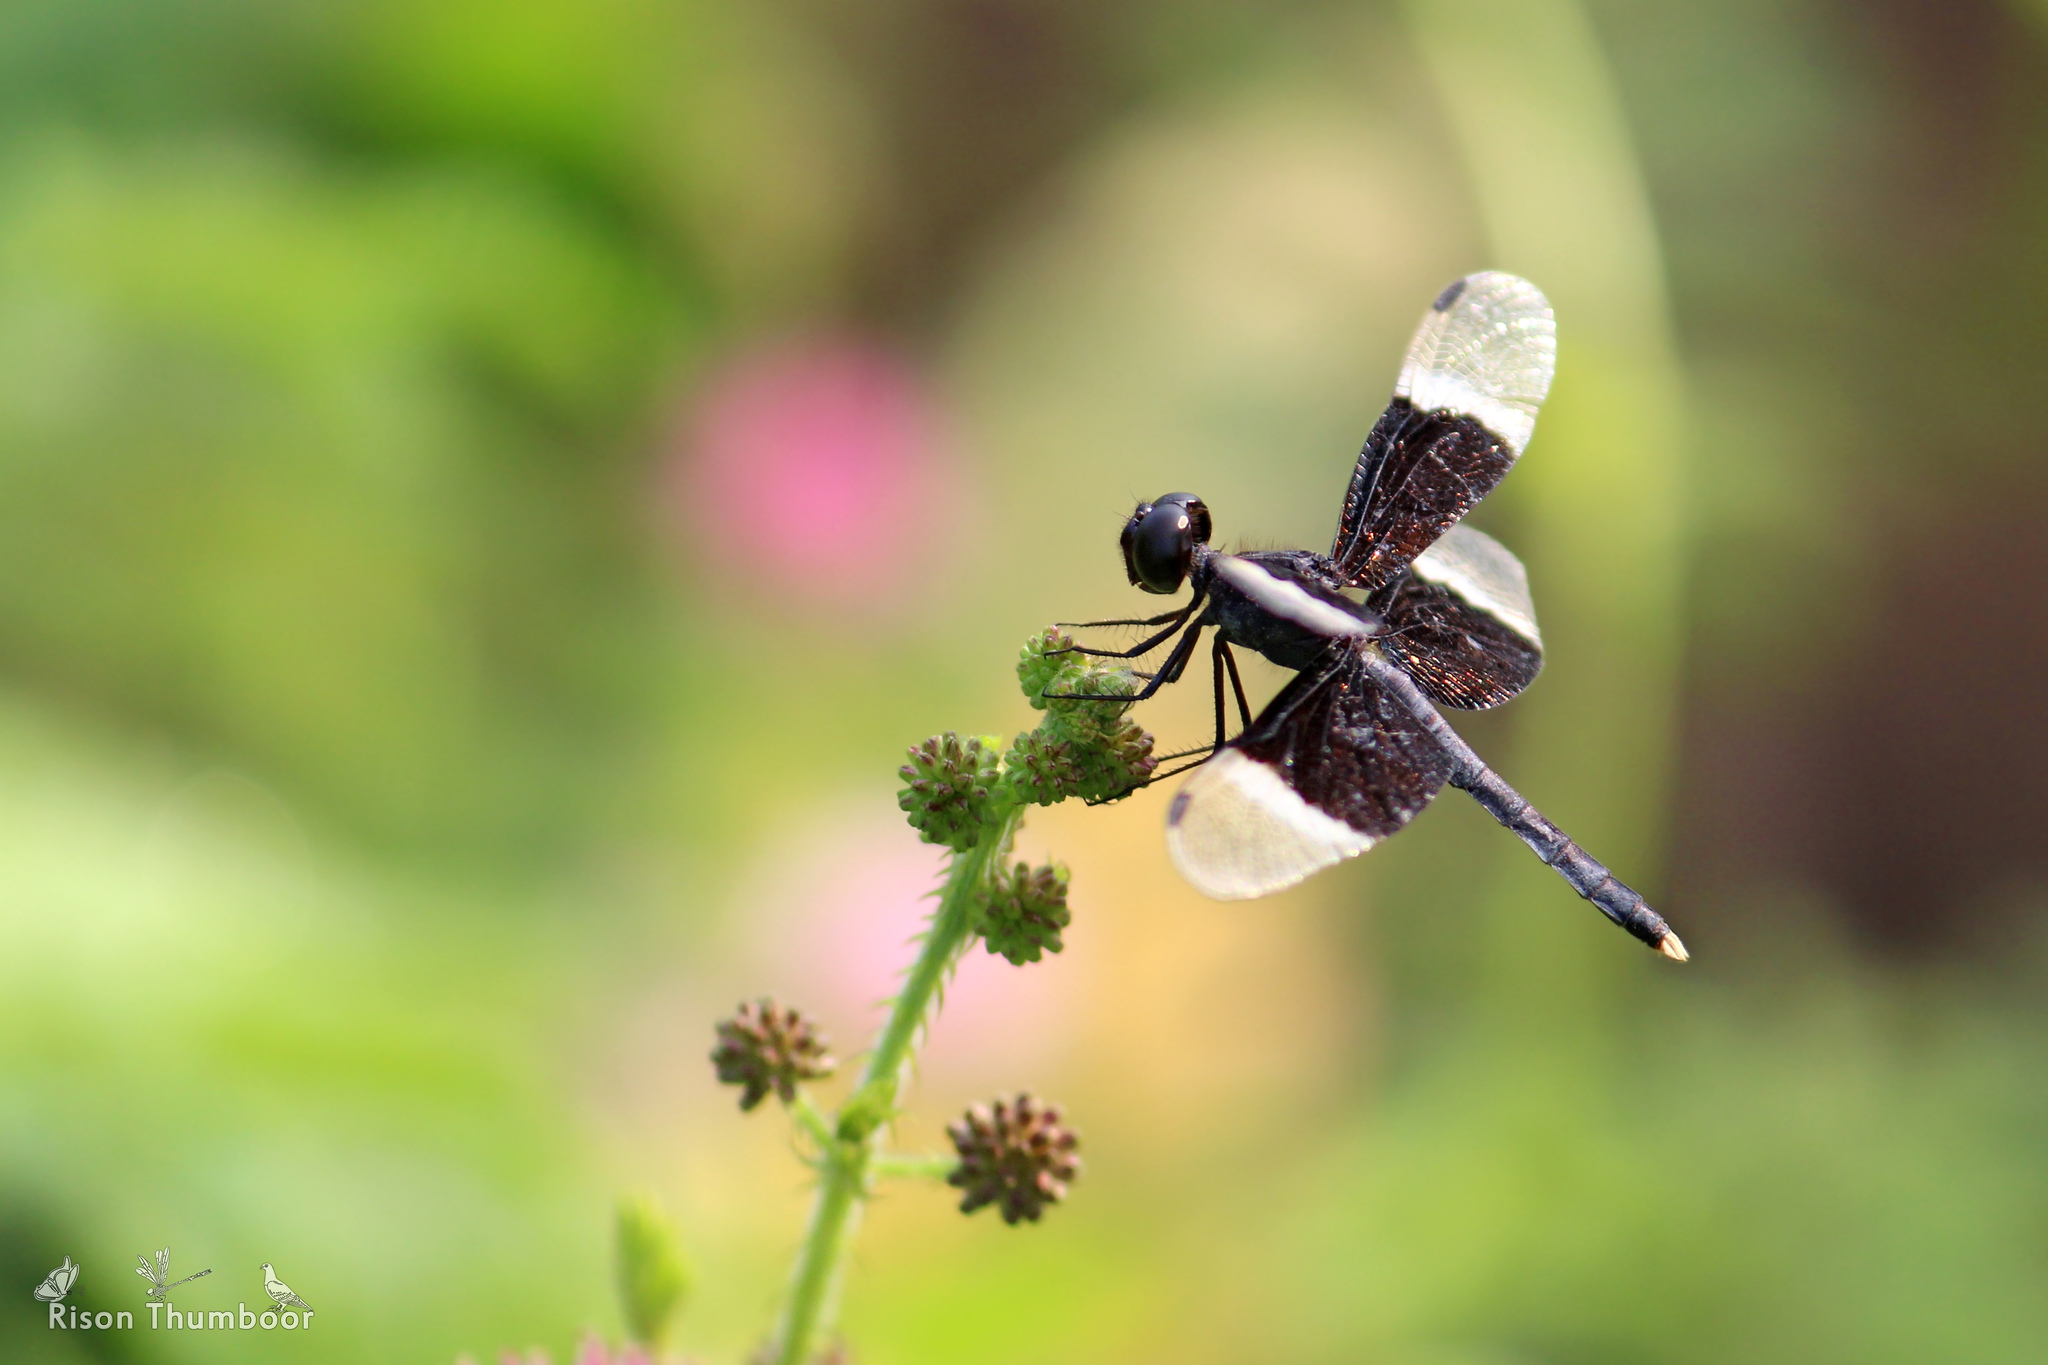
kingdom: Animalia
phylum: Arthropoda
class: Insecta
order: Odonata
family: Libellulidae
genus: Neurothemis
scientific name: Neurothemis tullia
